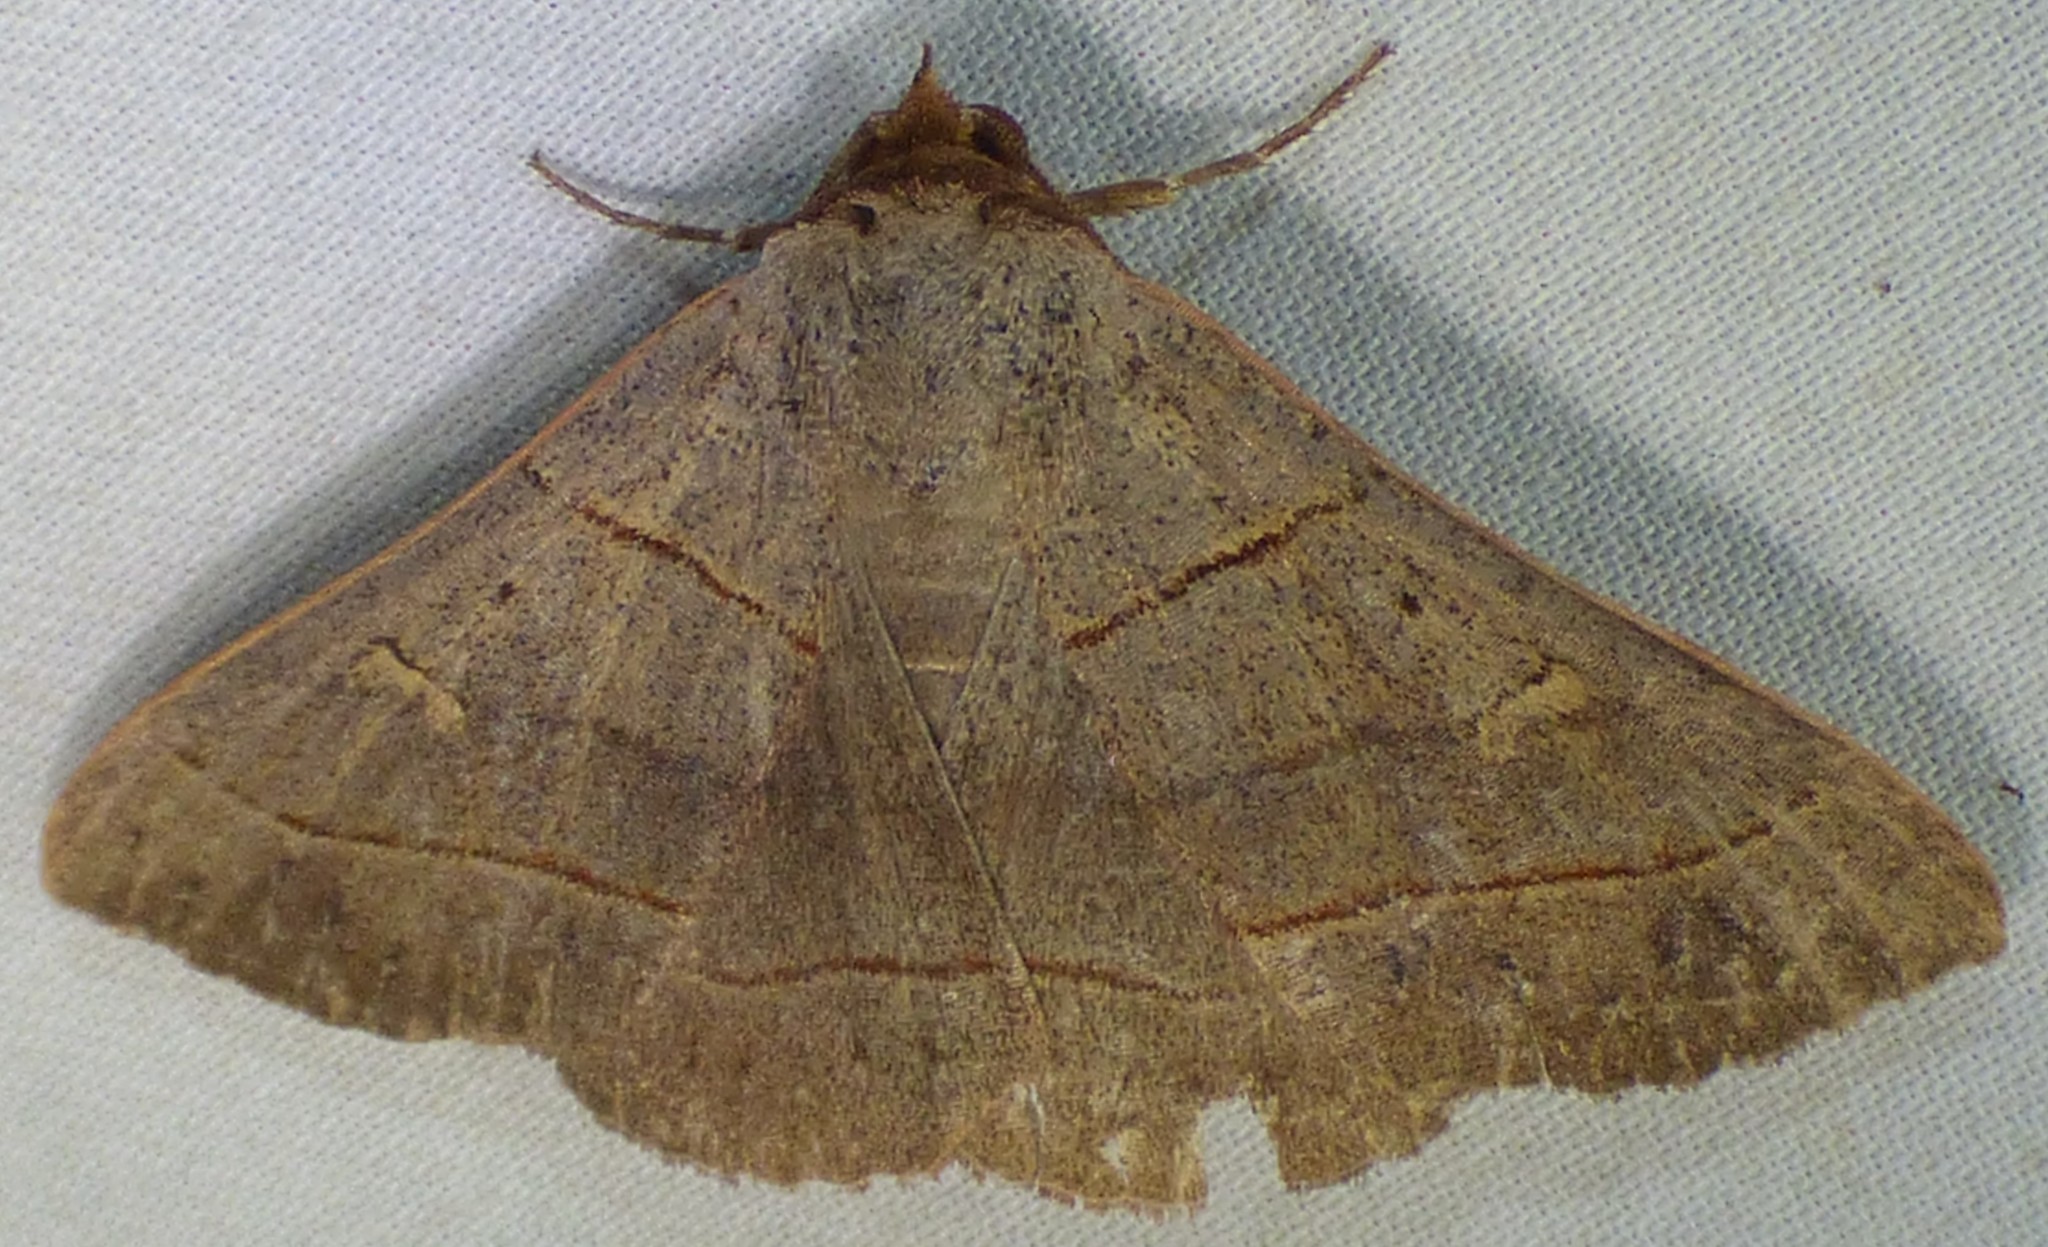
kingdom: Animalia
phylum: Arthropoda
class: Insecta
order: Lepidoptera
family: Erebidae
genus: Panopoda
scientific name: Panopoda rufimargo
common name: Red-lined panopoda moth
